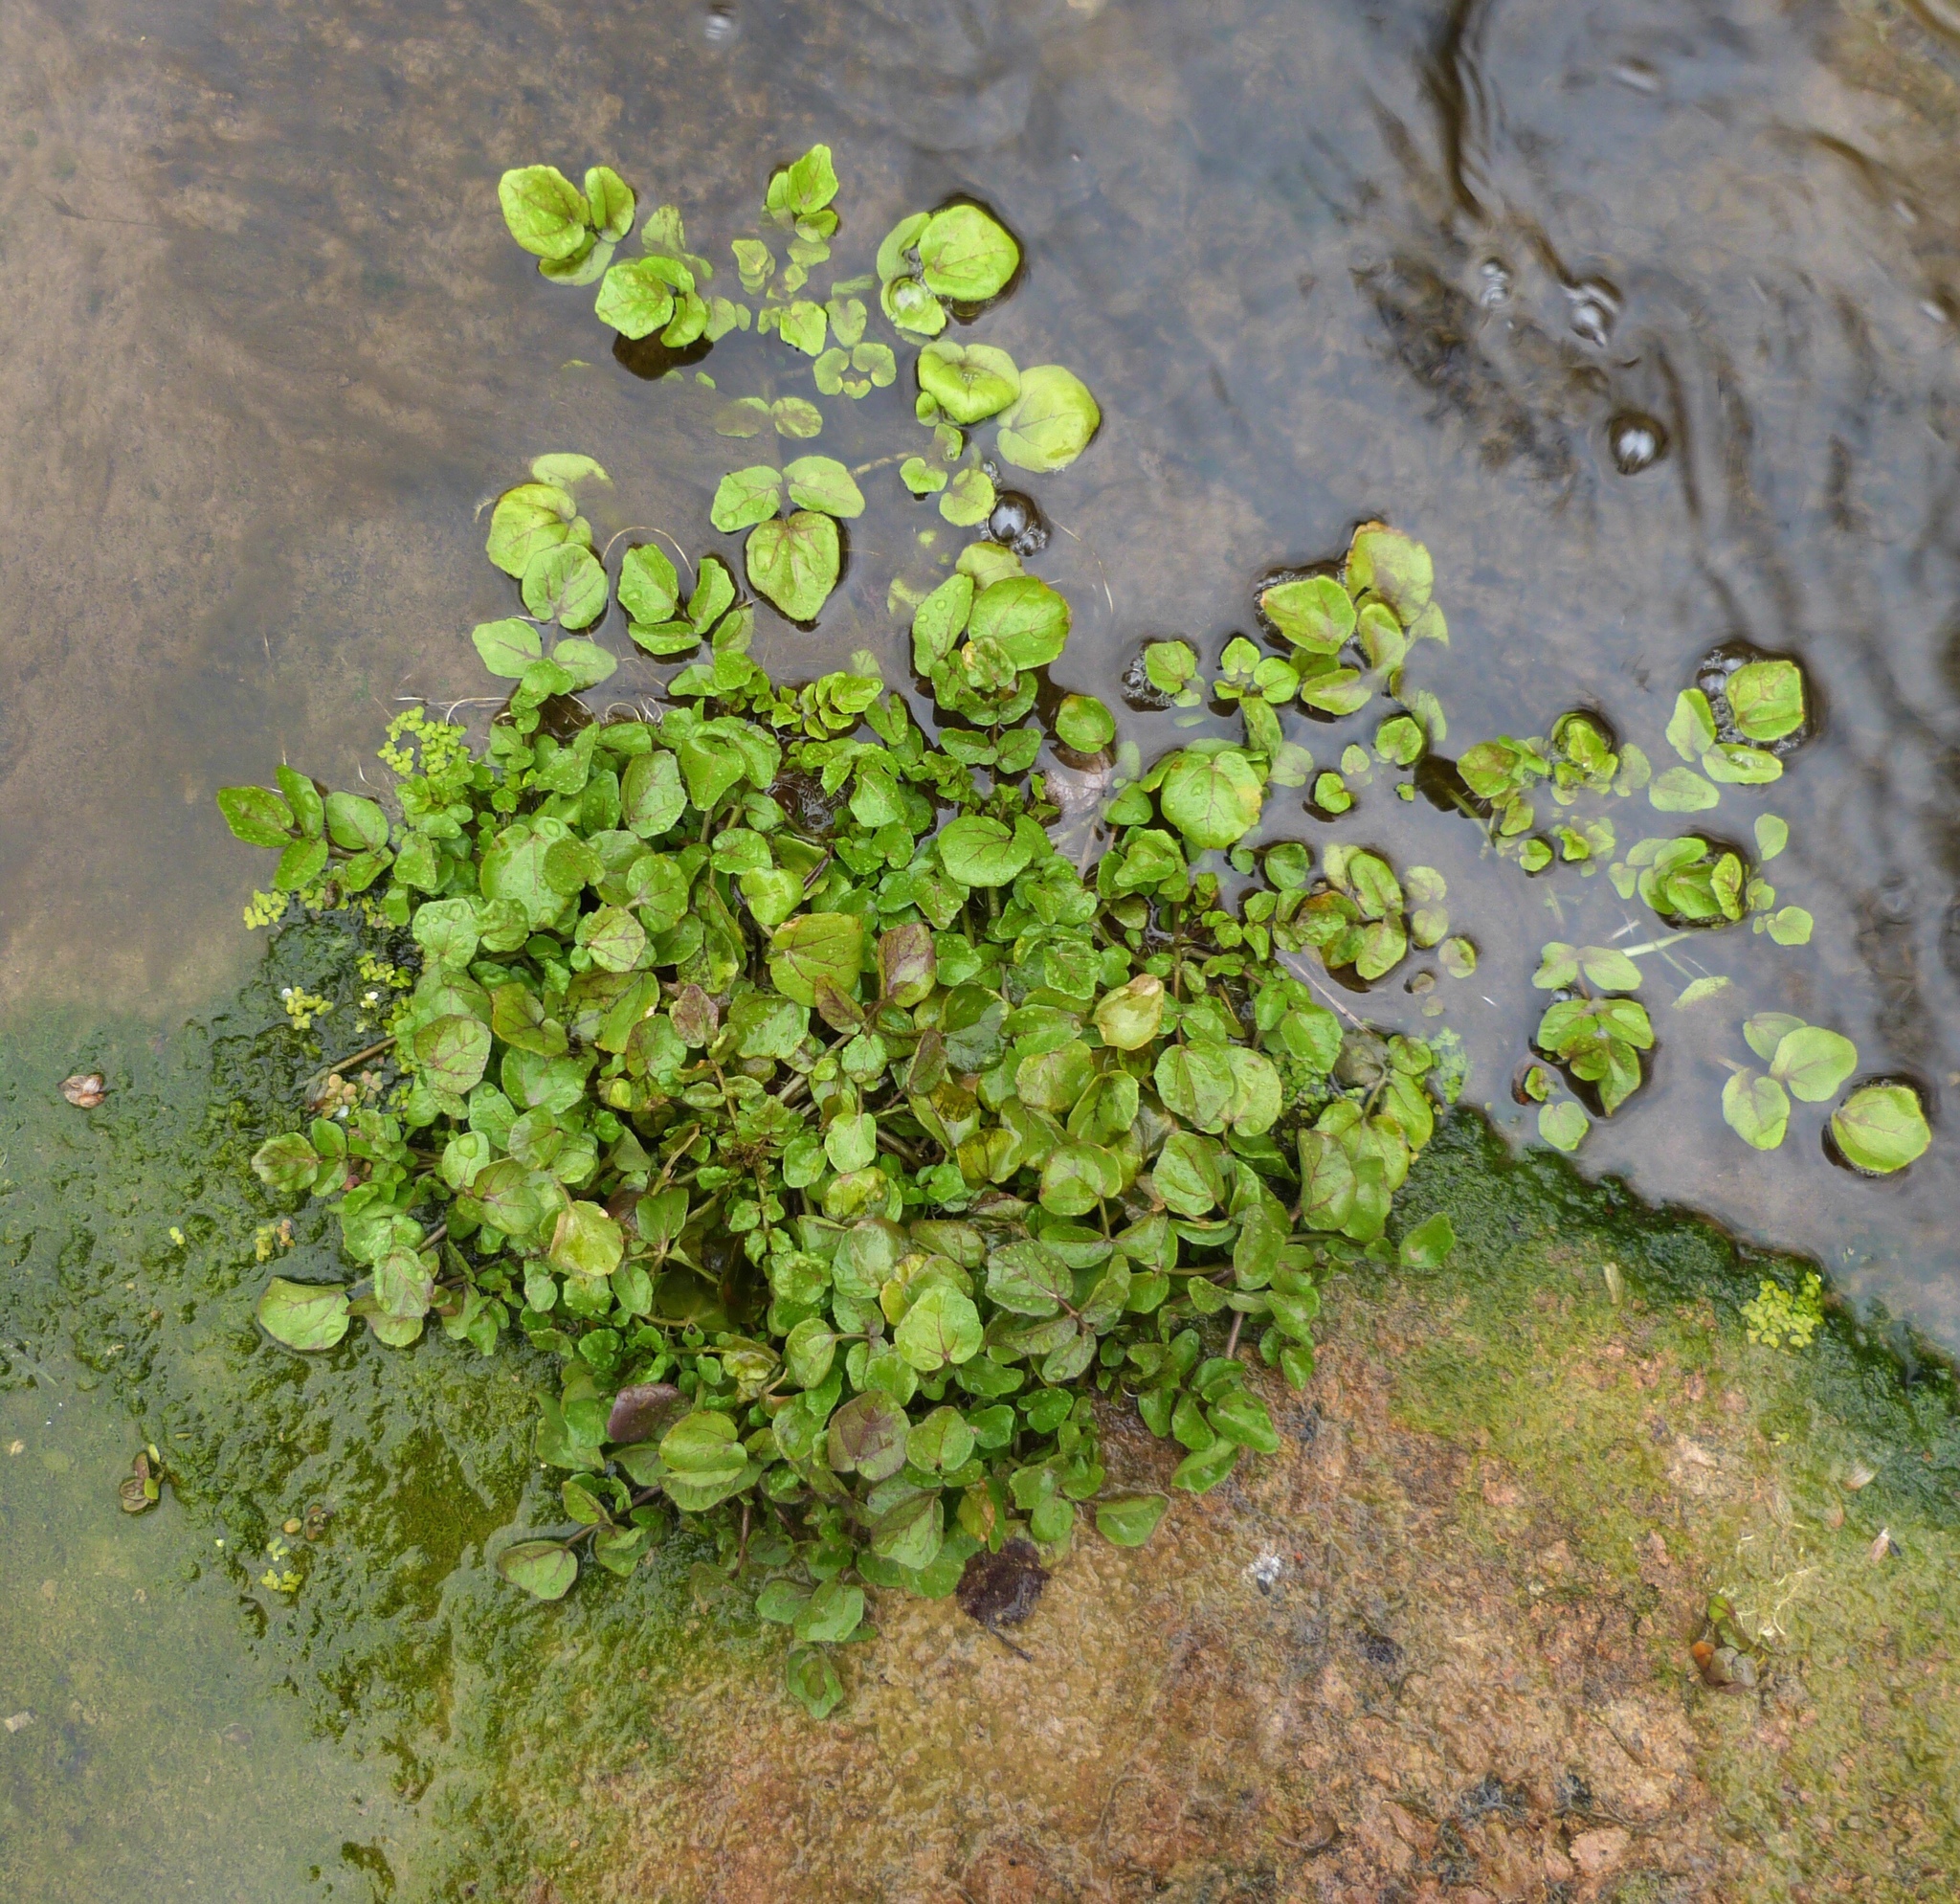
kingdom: Plantae
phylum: Tracheophyta
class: Magnoliopsida
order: Brassicales
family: Brassicaceae
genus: Nasturtium
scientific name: Nasturtium officinale
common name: Watercress
